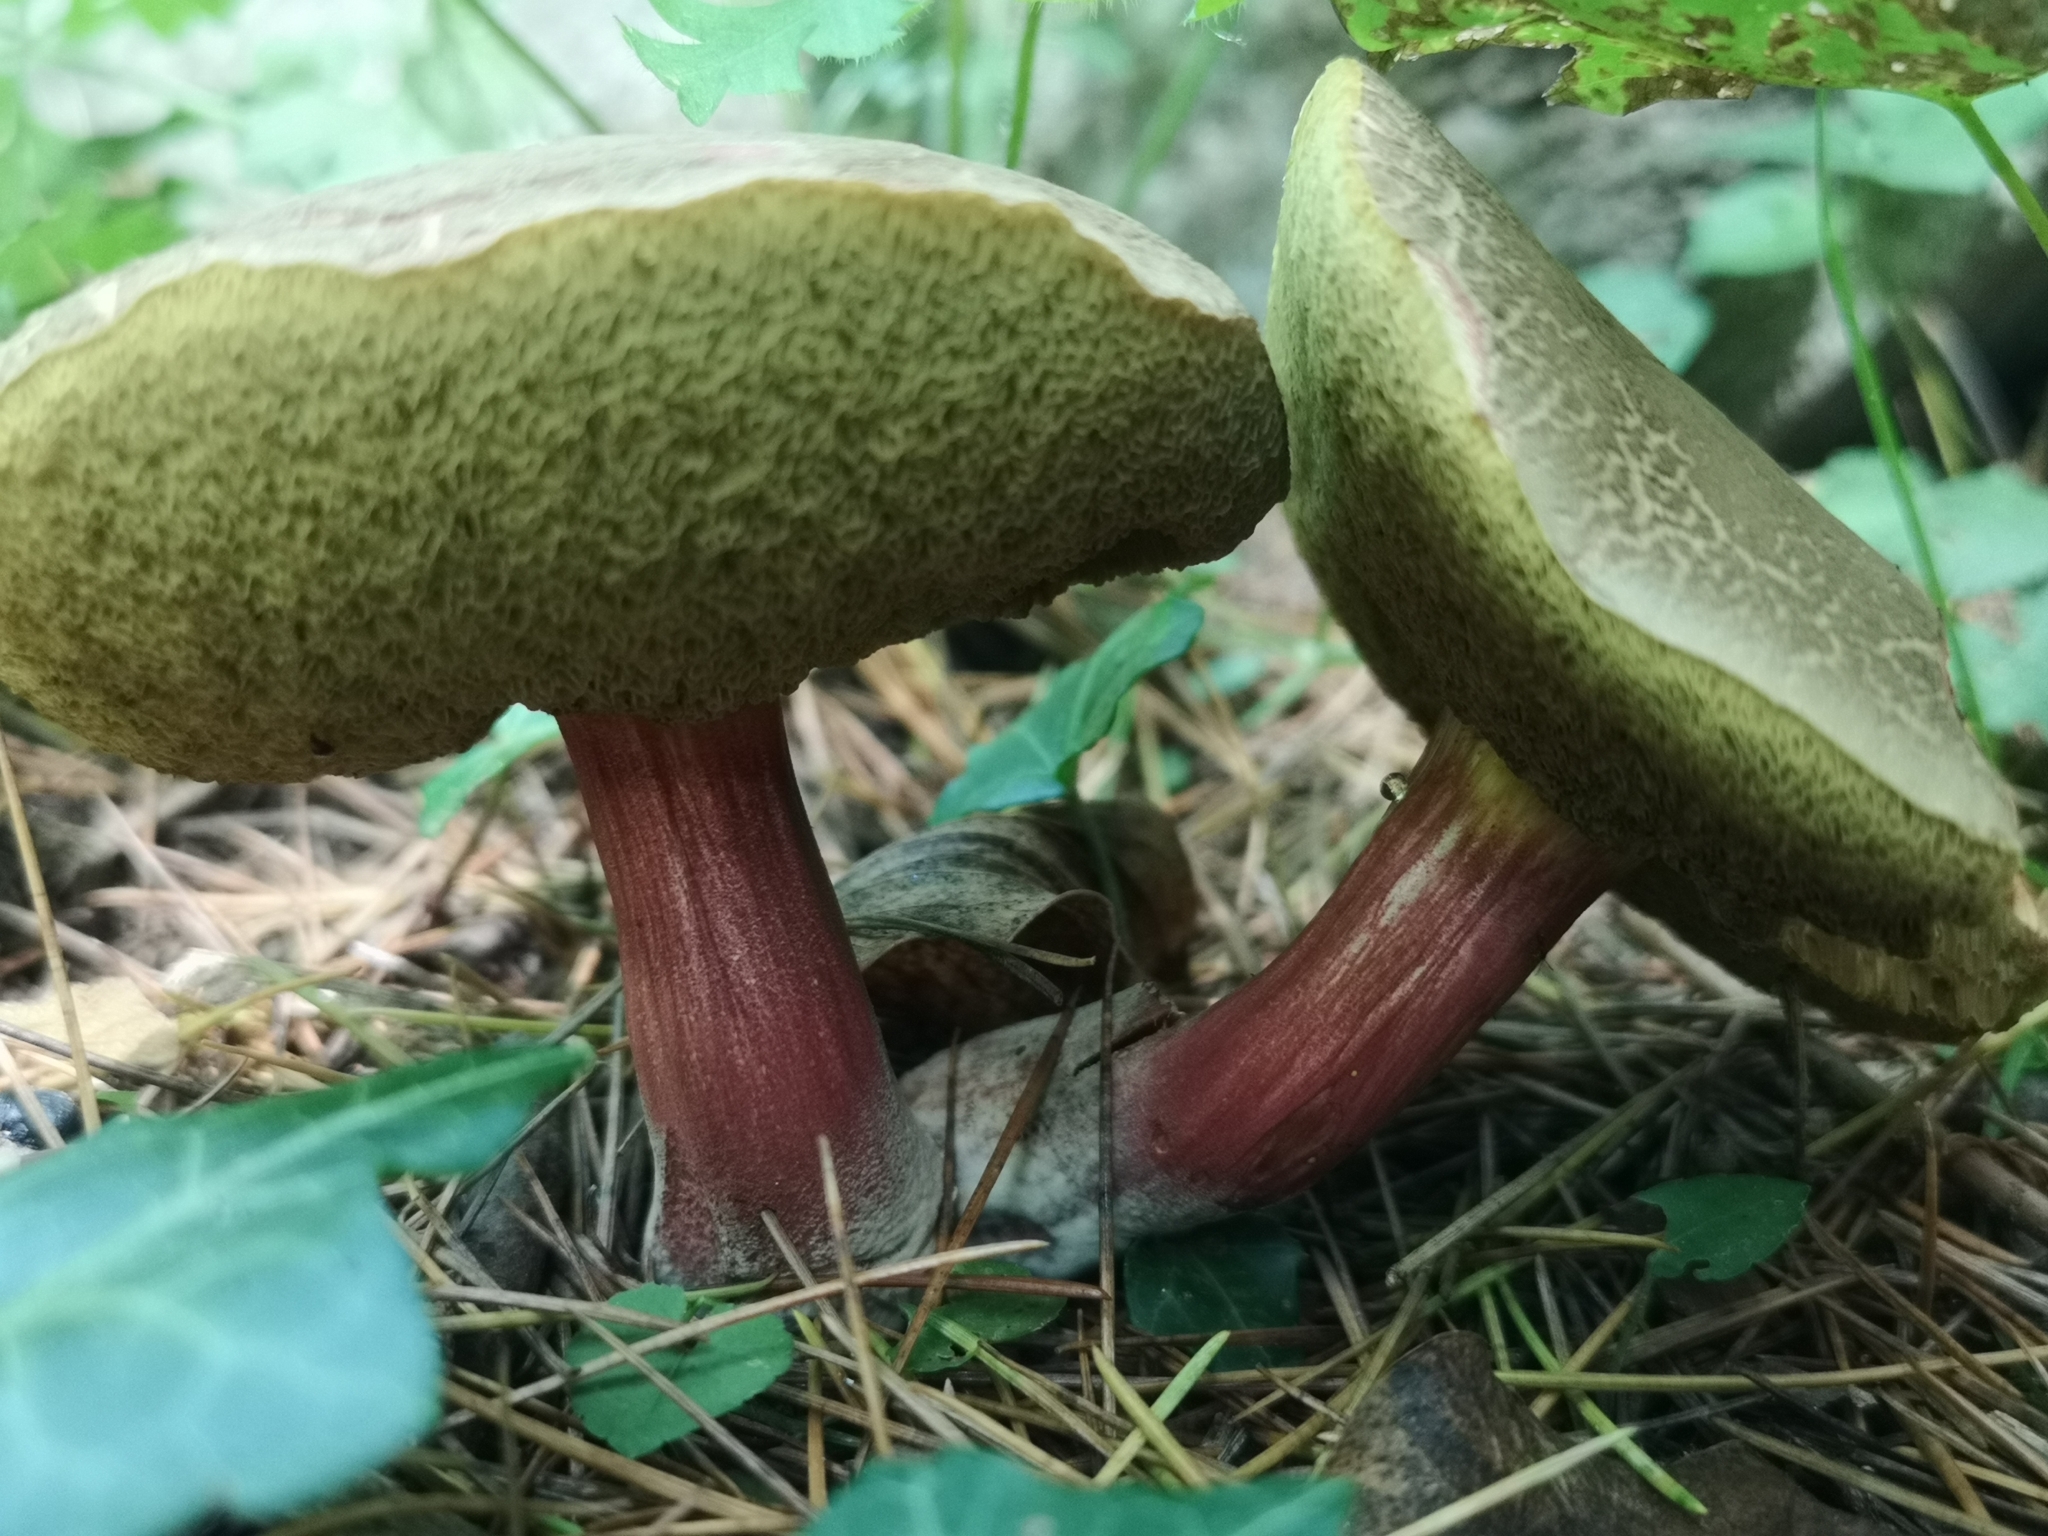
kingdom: Fungi
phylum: Basidiomycota
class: Agaricomycetes
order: Boletales
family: Boletaceae
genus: Xerocomellus
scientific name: Xerocomellus chrysenteron
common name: Red-cracking bolete
